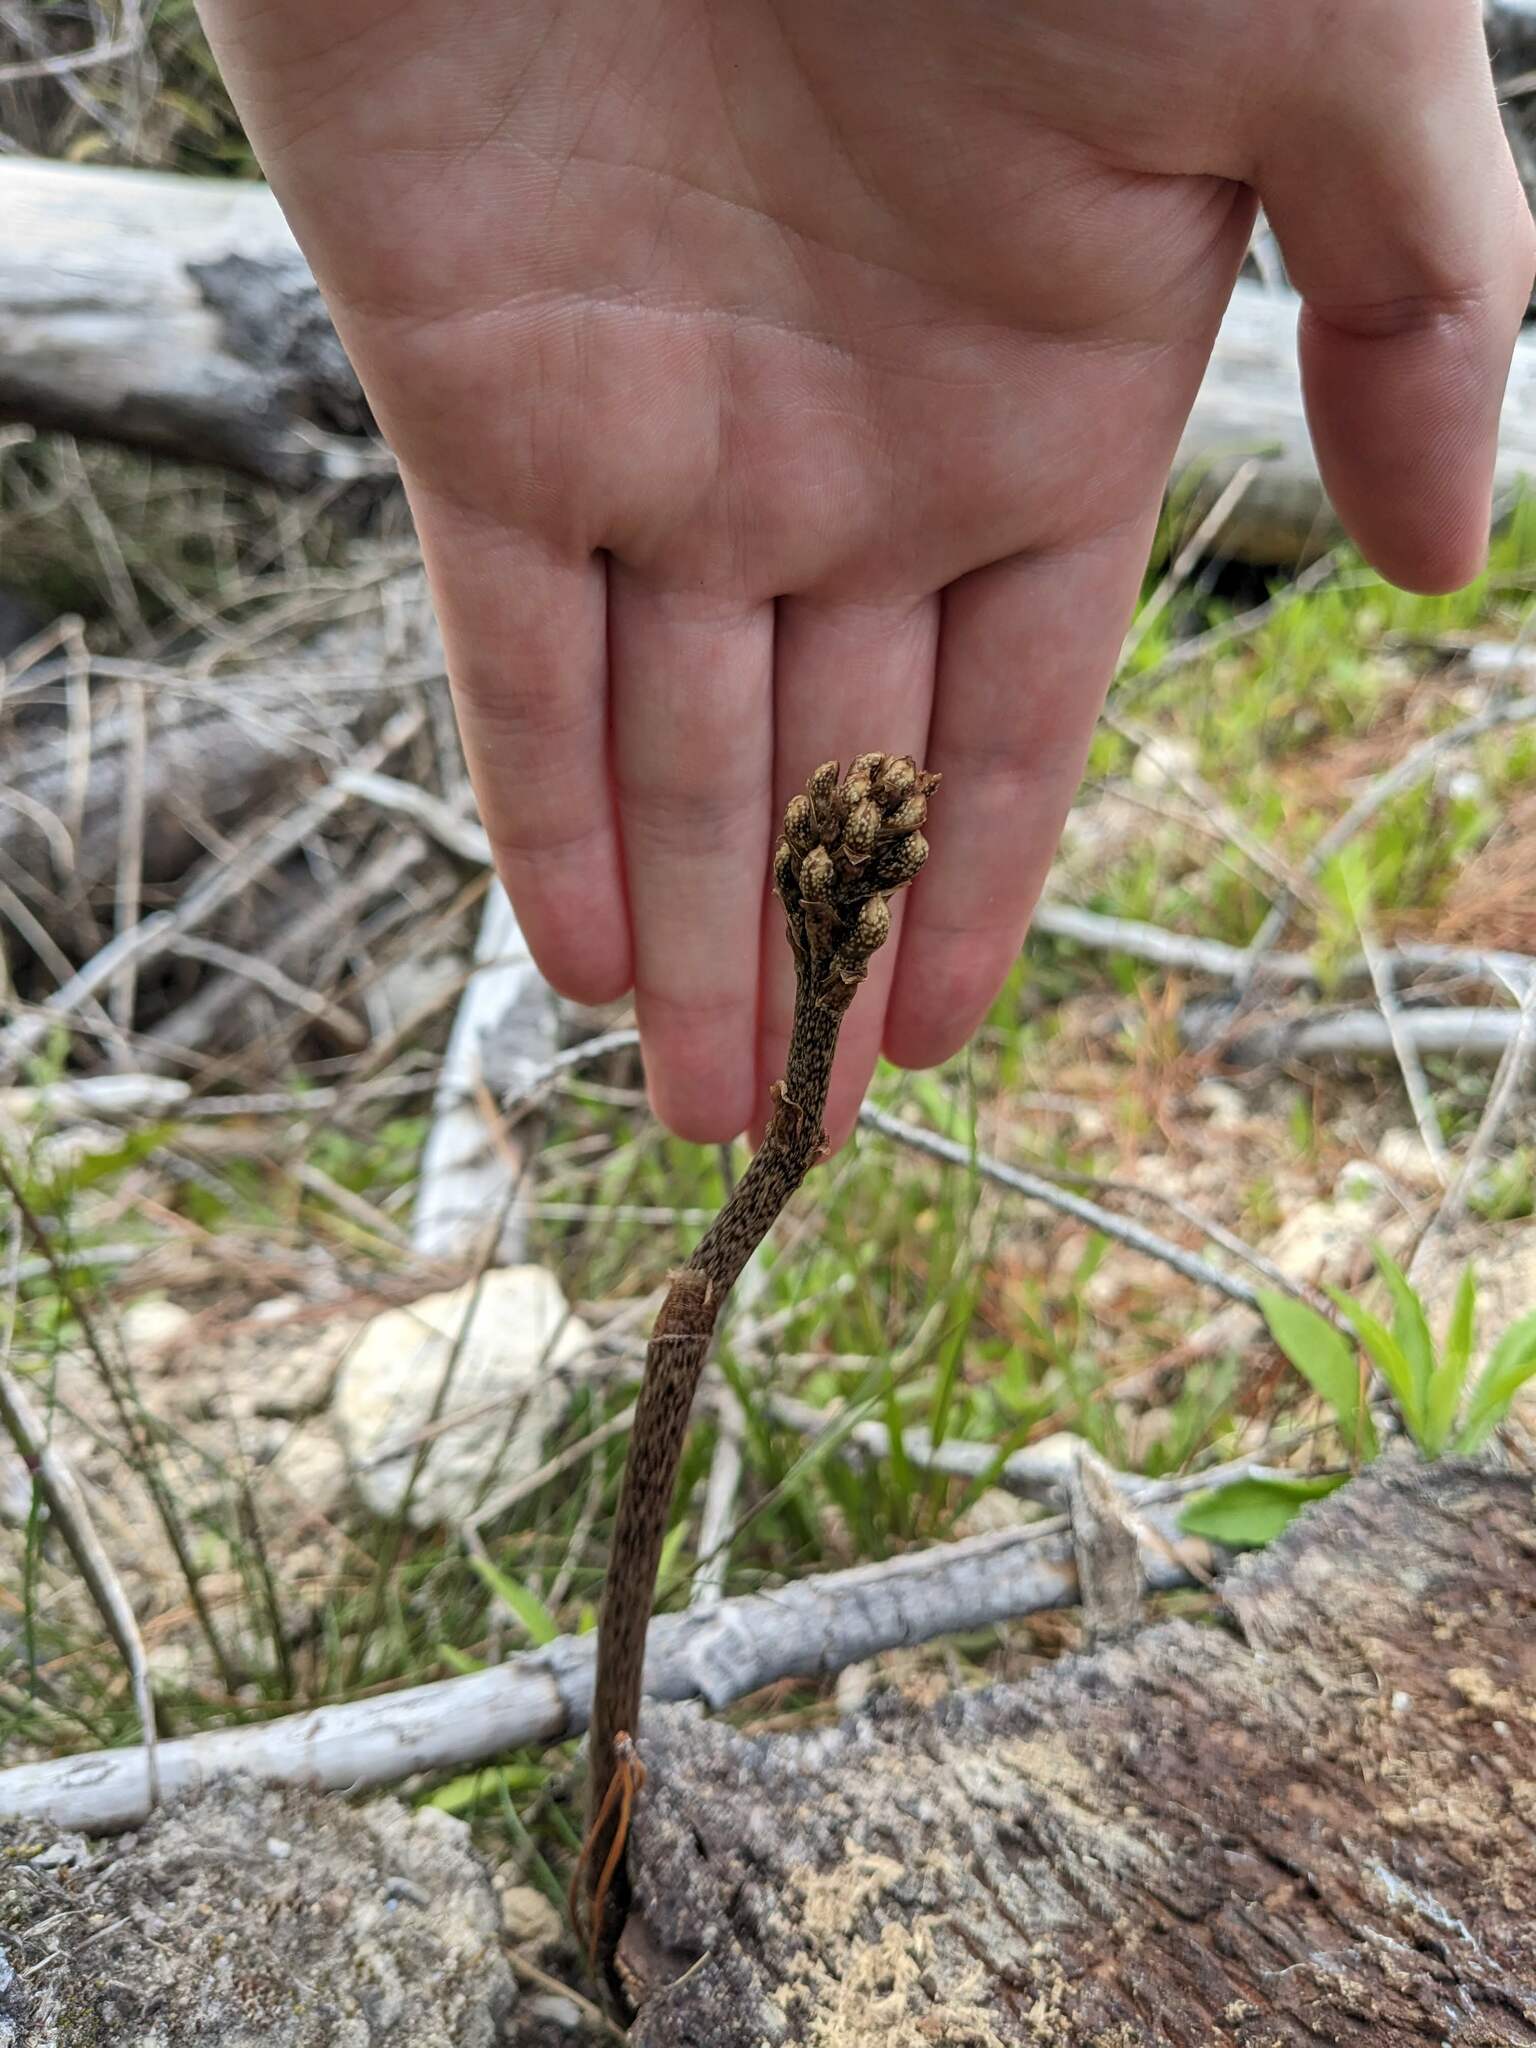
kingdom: Plantae
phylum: Tracheophyta
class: Liliopsida
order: Asparagales
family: Orchidaceae
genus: Gastrodia
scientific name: Gastrodia molloyi
